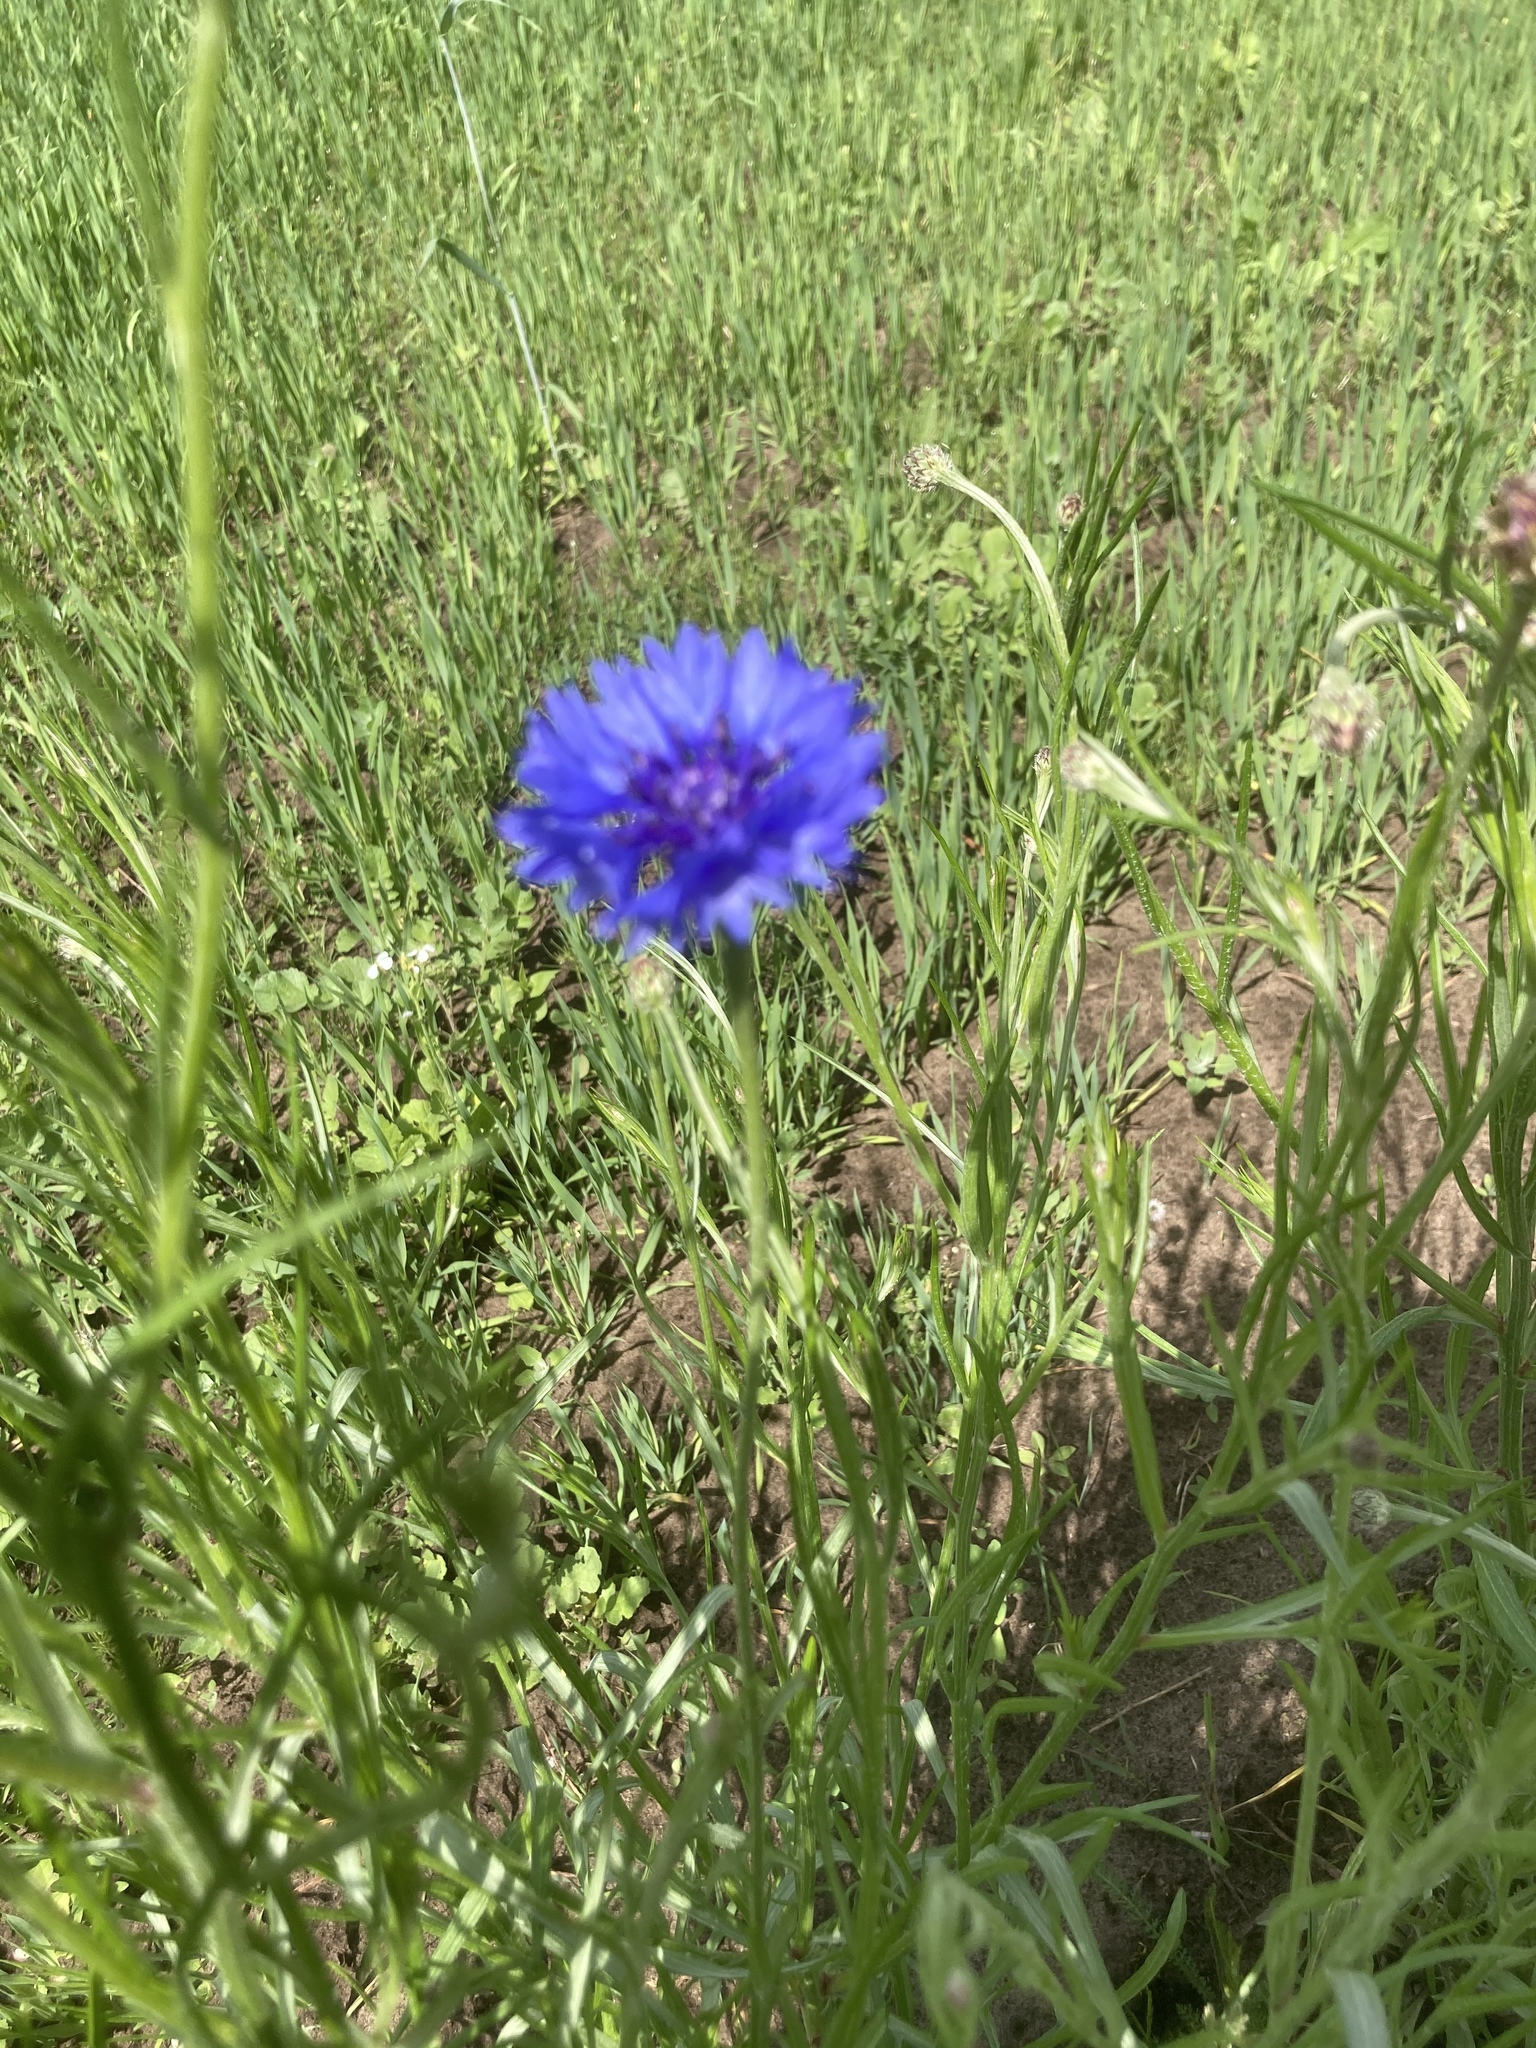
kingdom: Plantae
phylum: Tracheophyta
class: Magnoliopsida
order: Asterales
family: Asteraceae
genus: Centaurea
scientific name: Centaurea cyanus
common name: Cornflower
